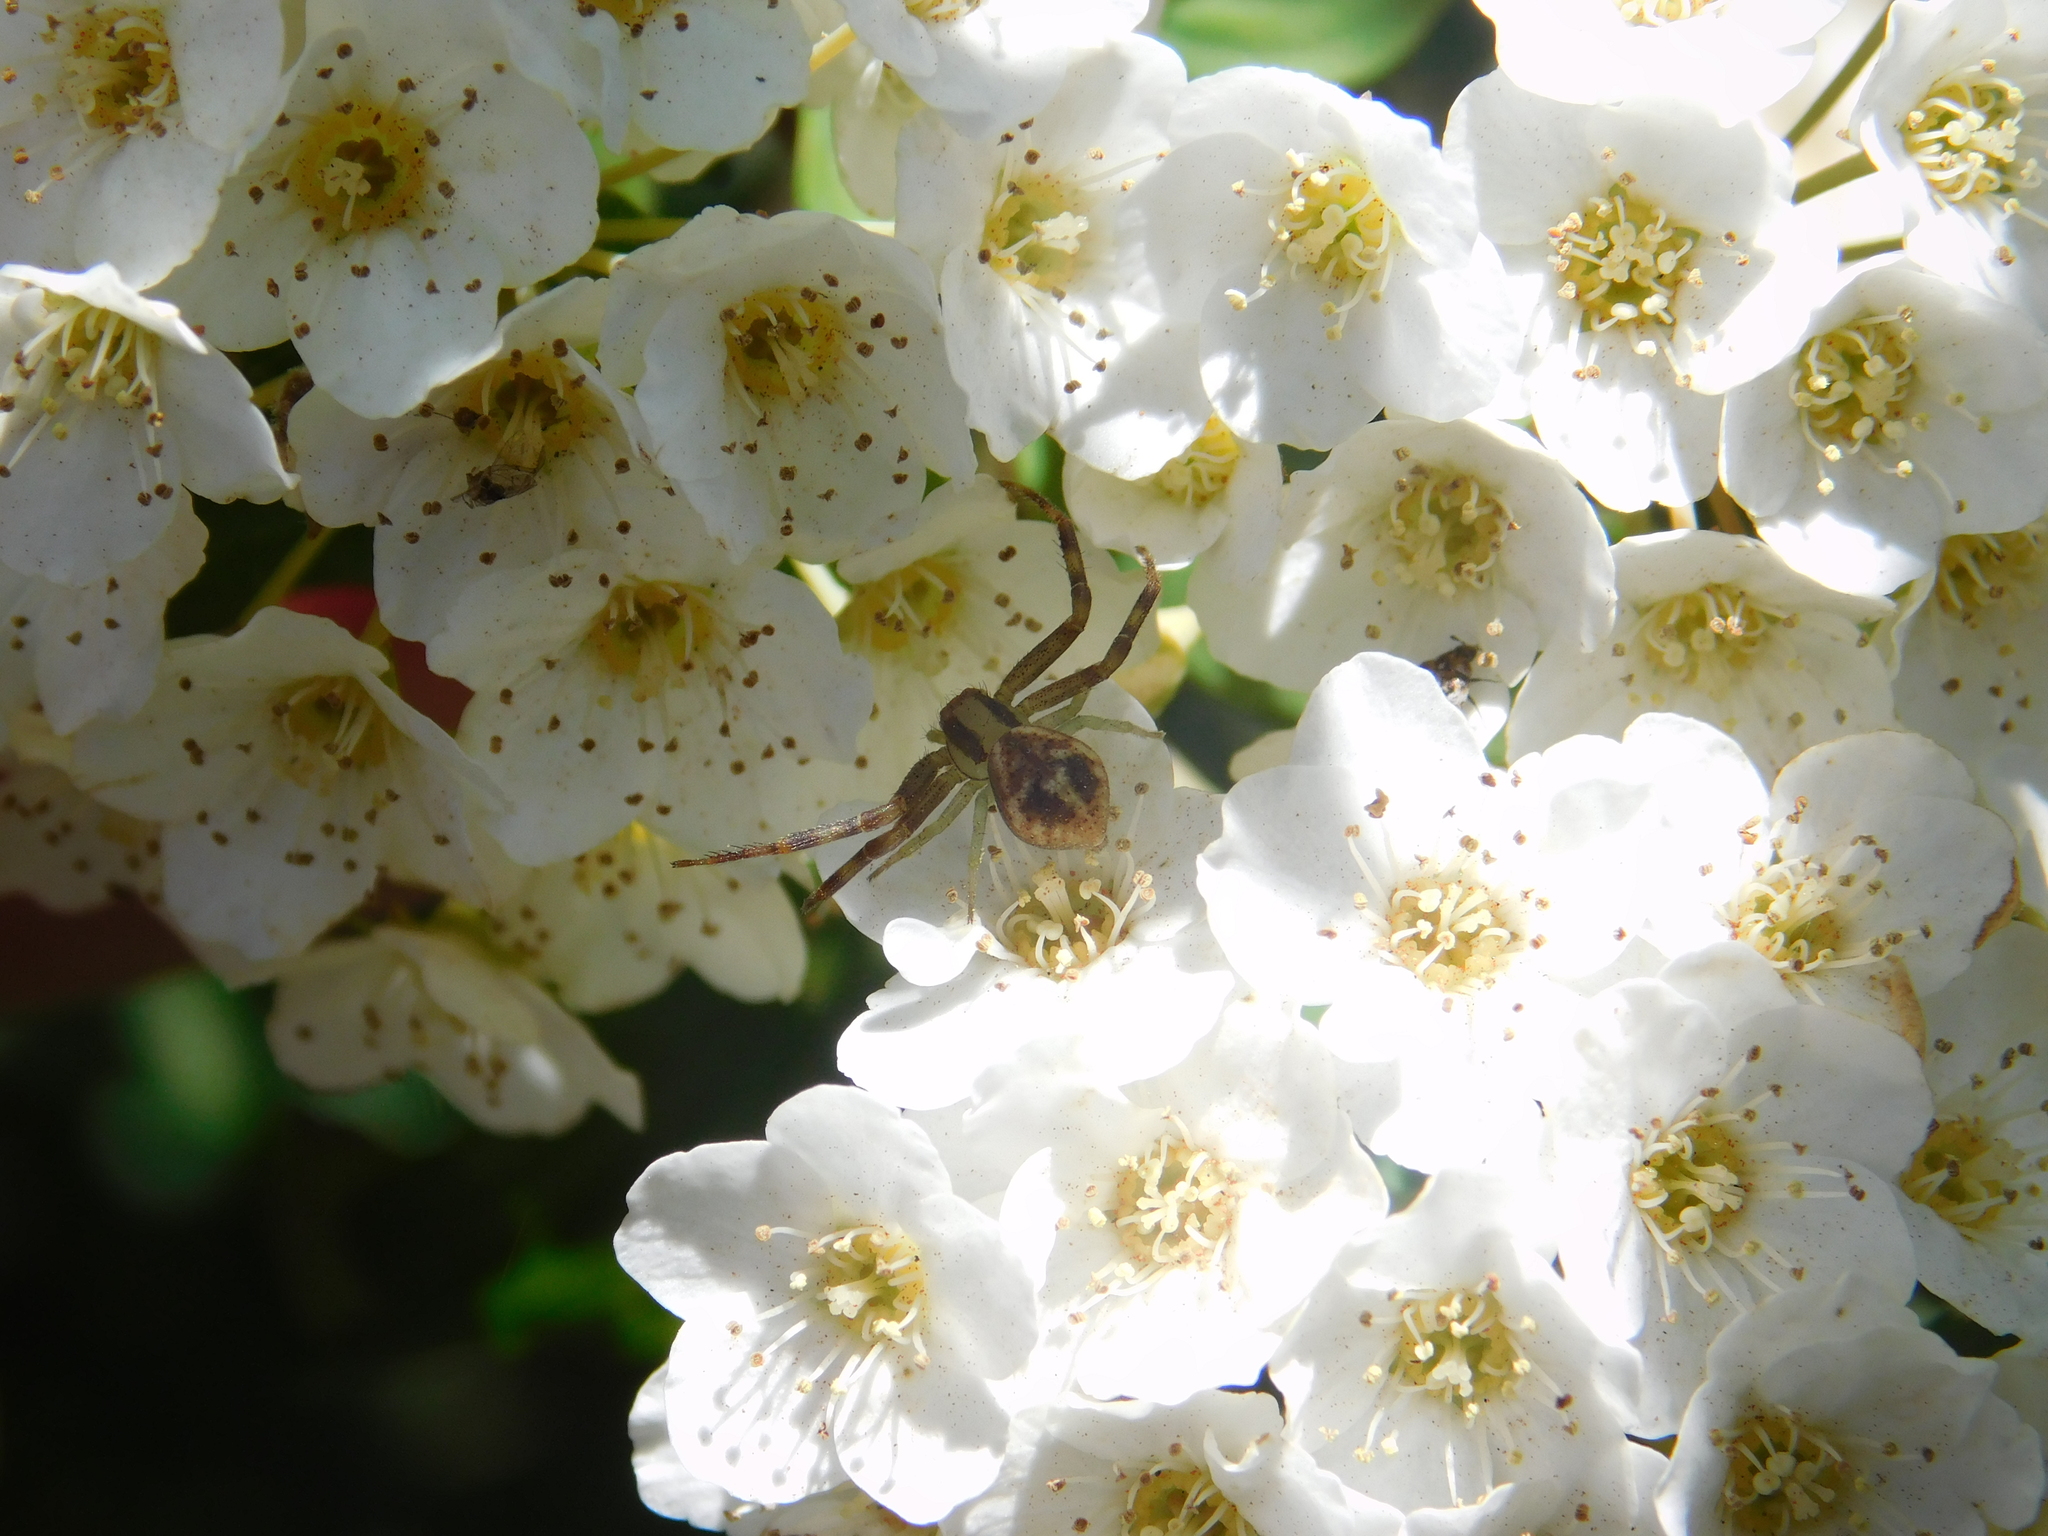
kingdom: Animalia
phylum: Arthropoda
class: Arachnida
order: Araneae
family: Thomisidae
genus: Misumenops
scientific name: Misumenops
